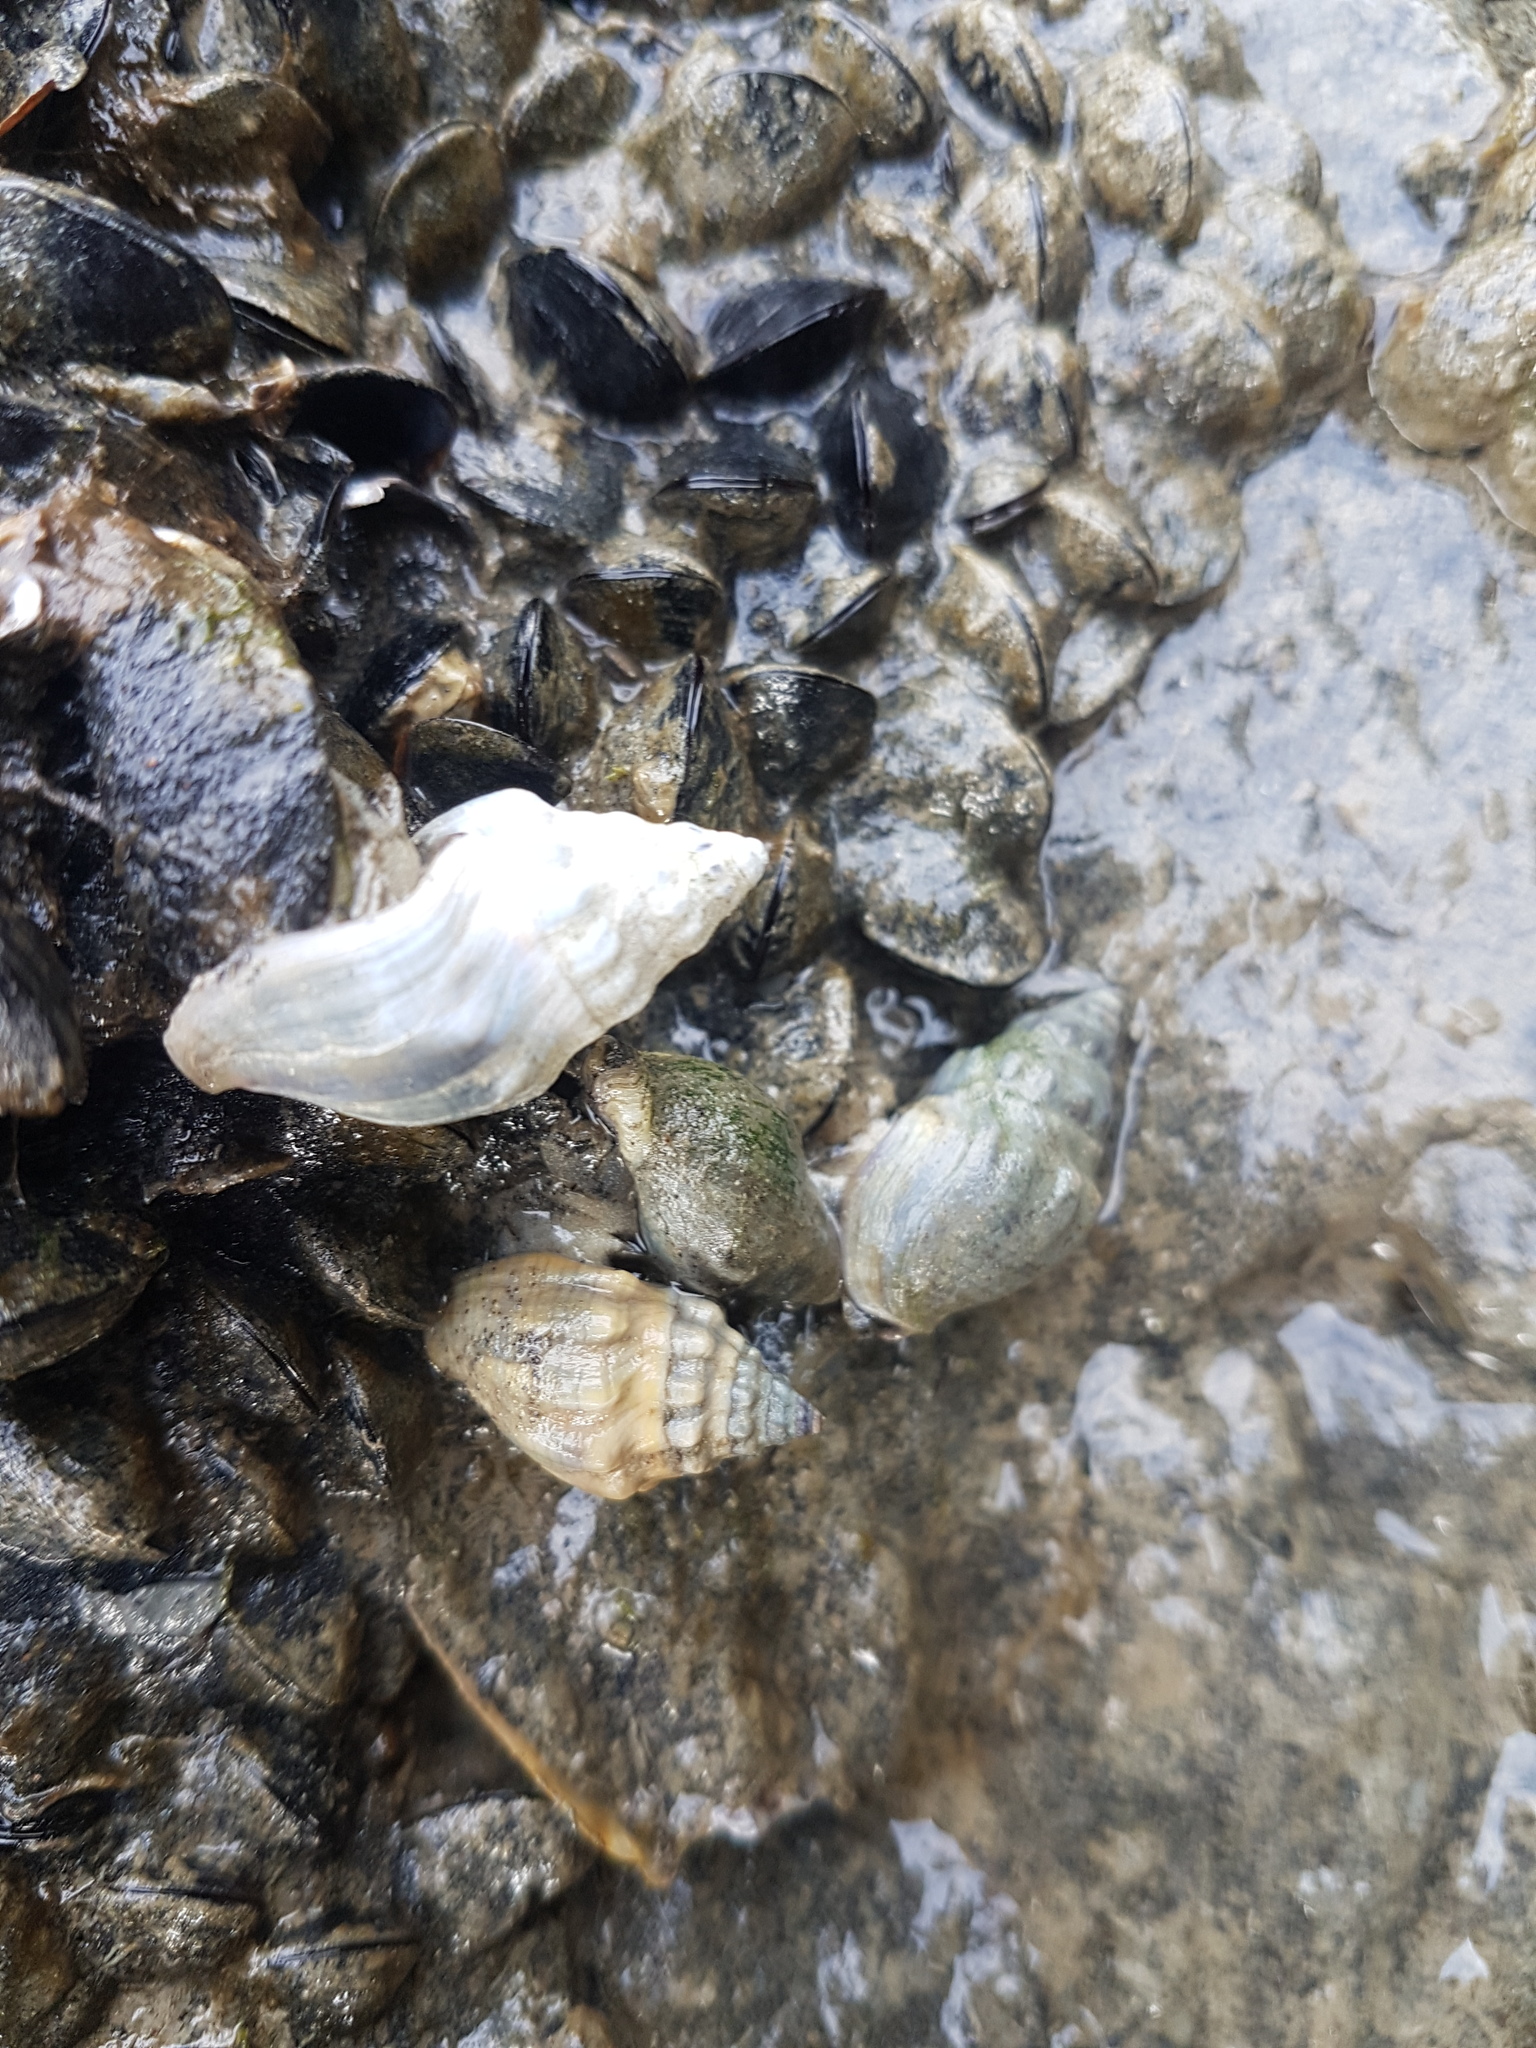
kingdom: Animalia
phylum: Mollusca
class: Gastropoda
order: Neogastropoda
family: Cominellidae
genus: Cominella
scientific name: Cominella glandiformis
